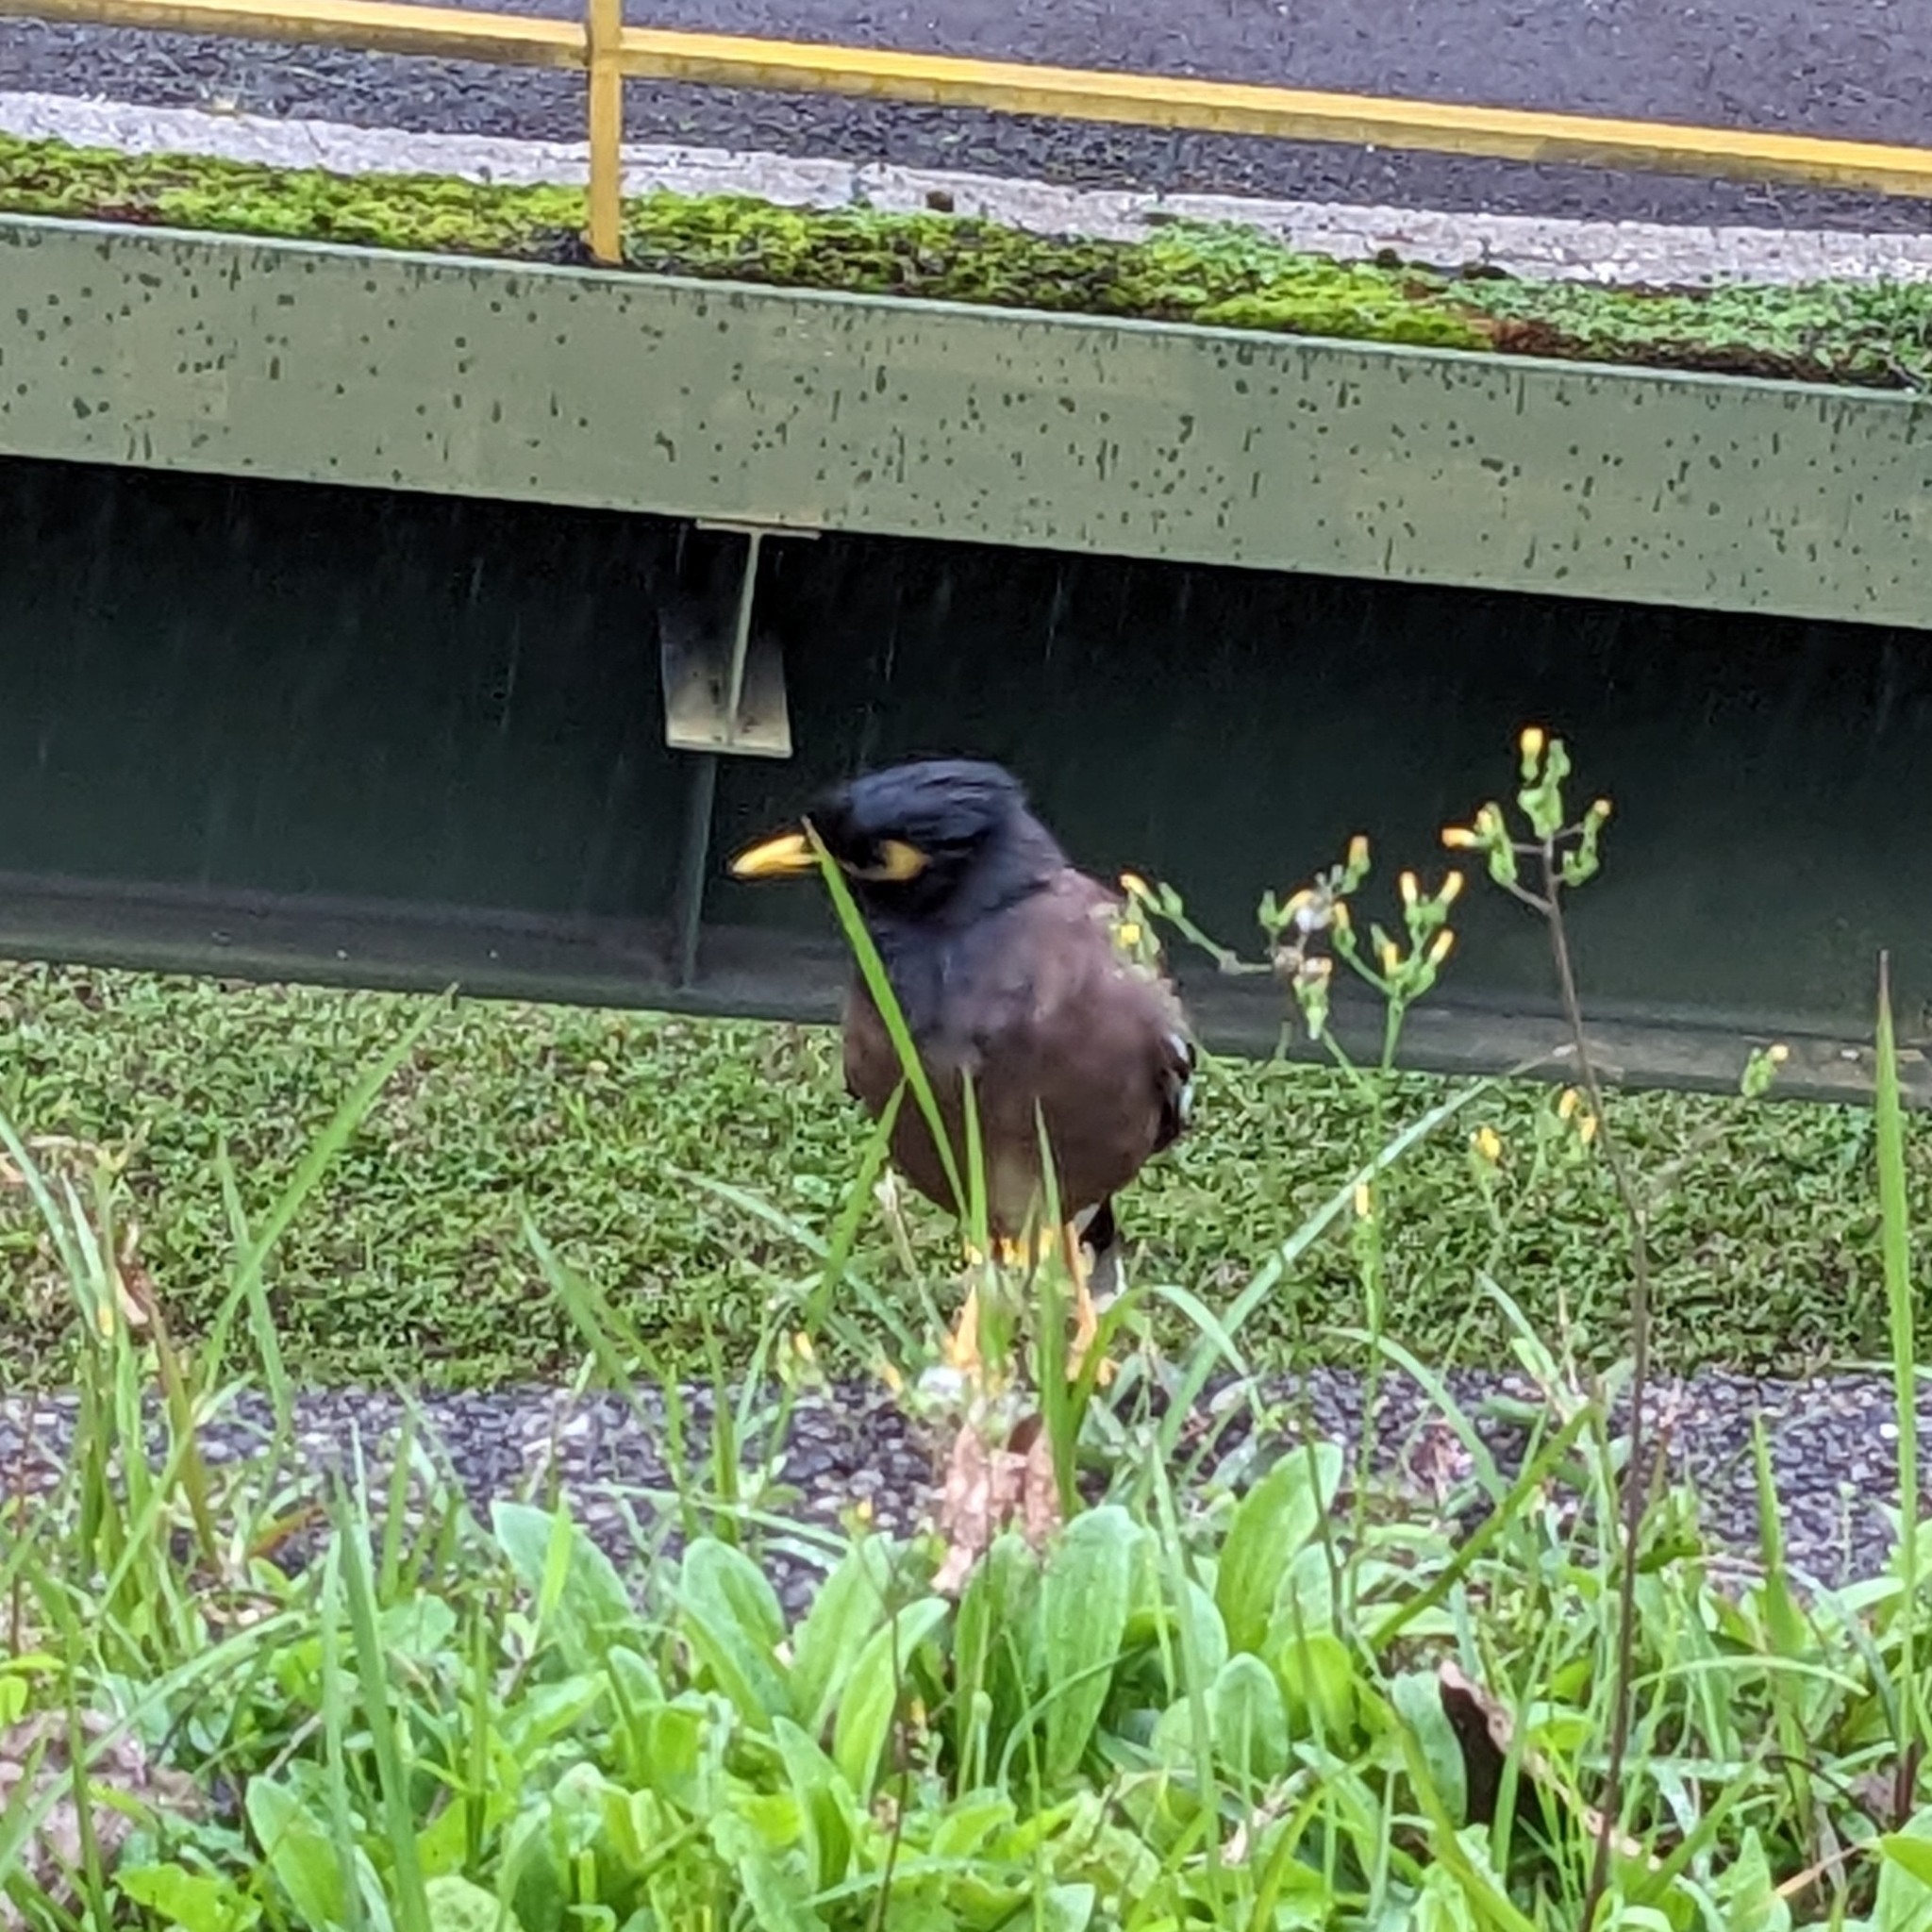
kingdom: Animalia
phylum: Chordata
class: Aves
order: Passeriformes
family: Sturnidae
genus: Acridotheres
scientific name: Acridotheres tristis
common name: Common myna
